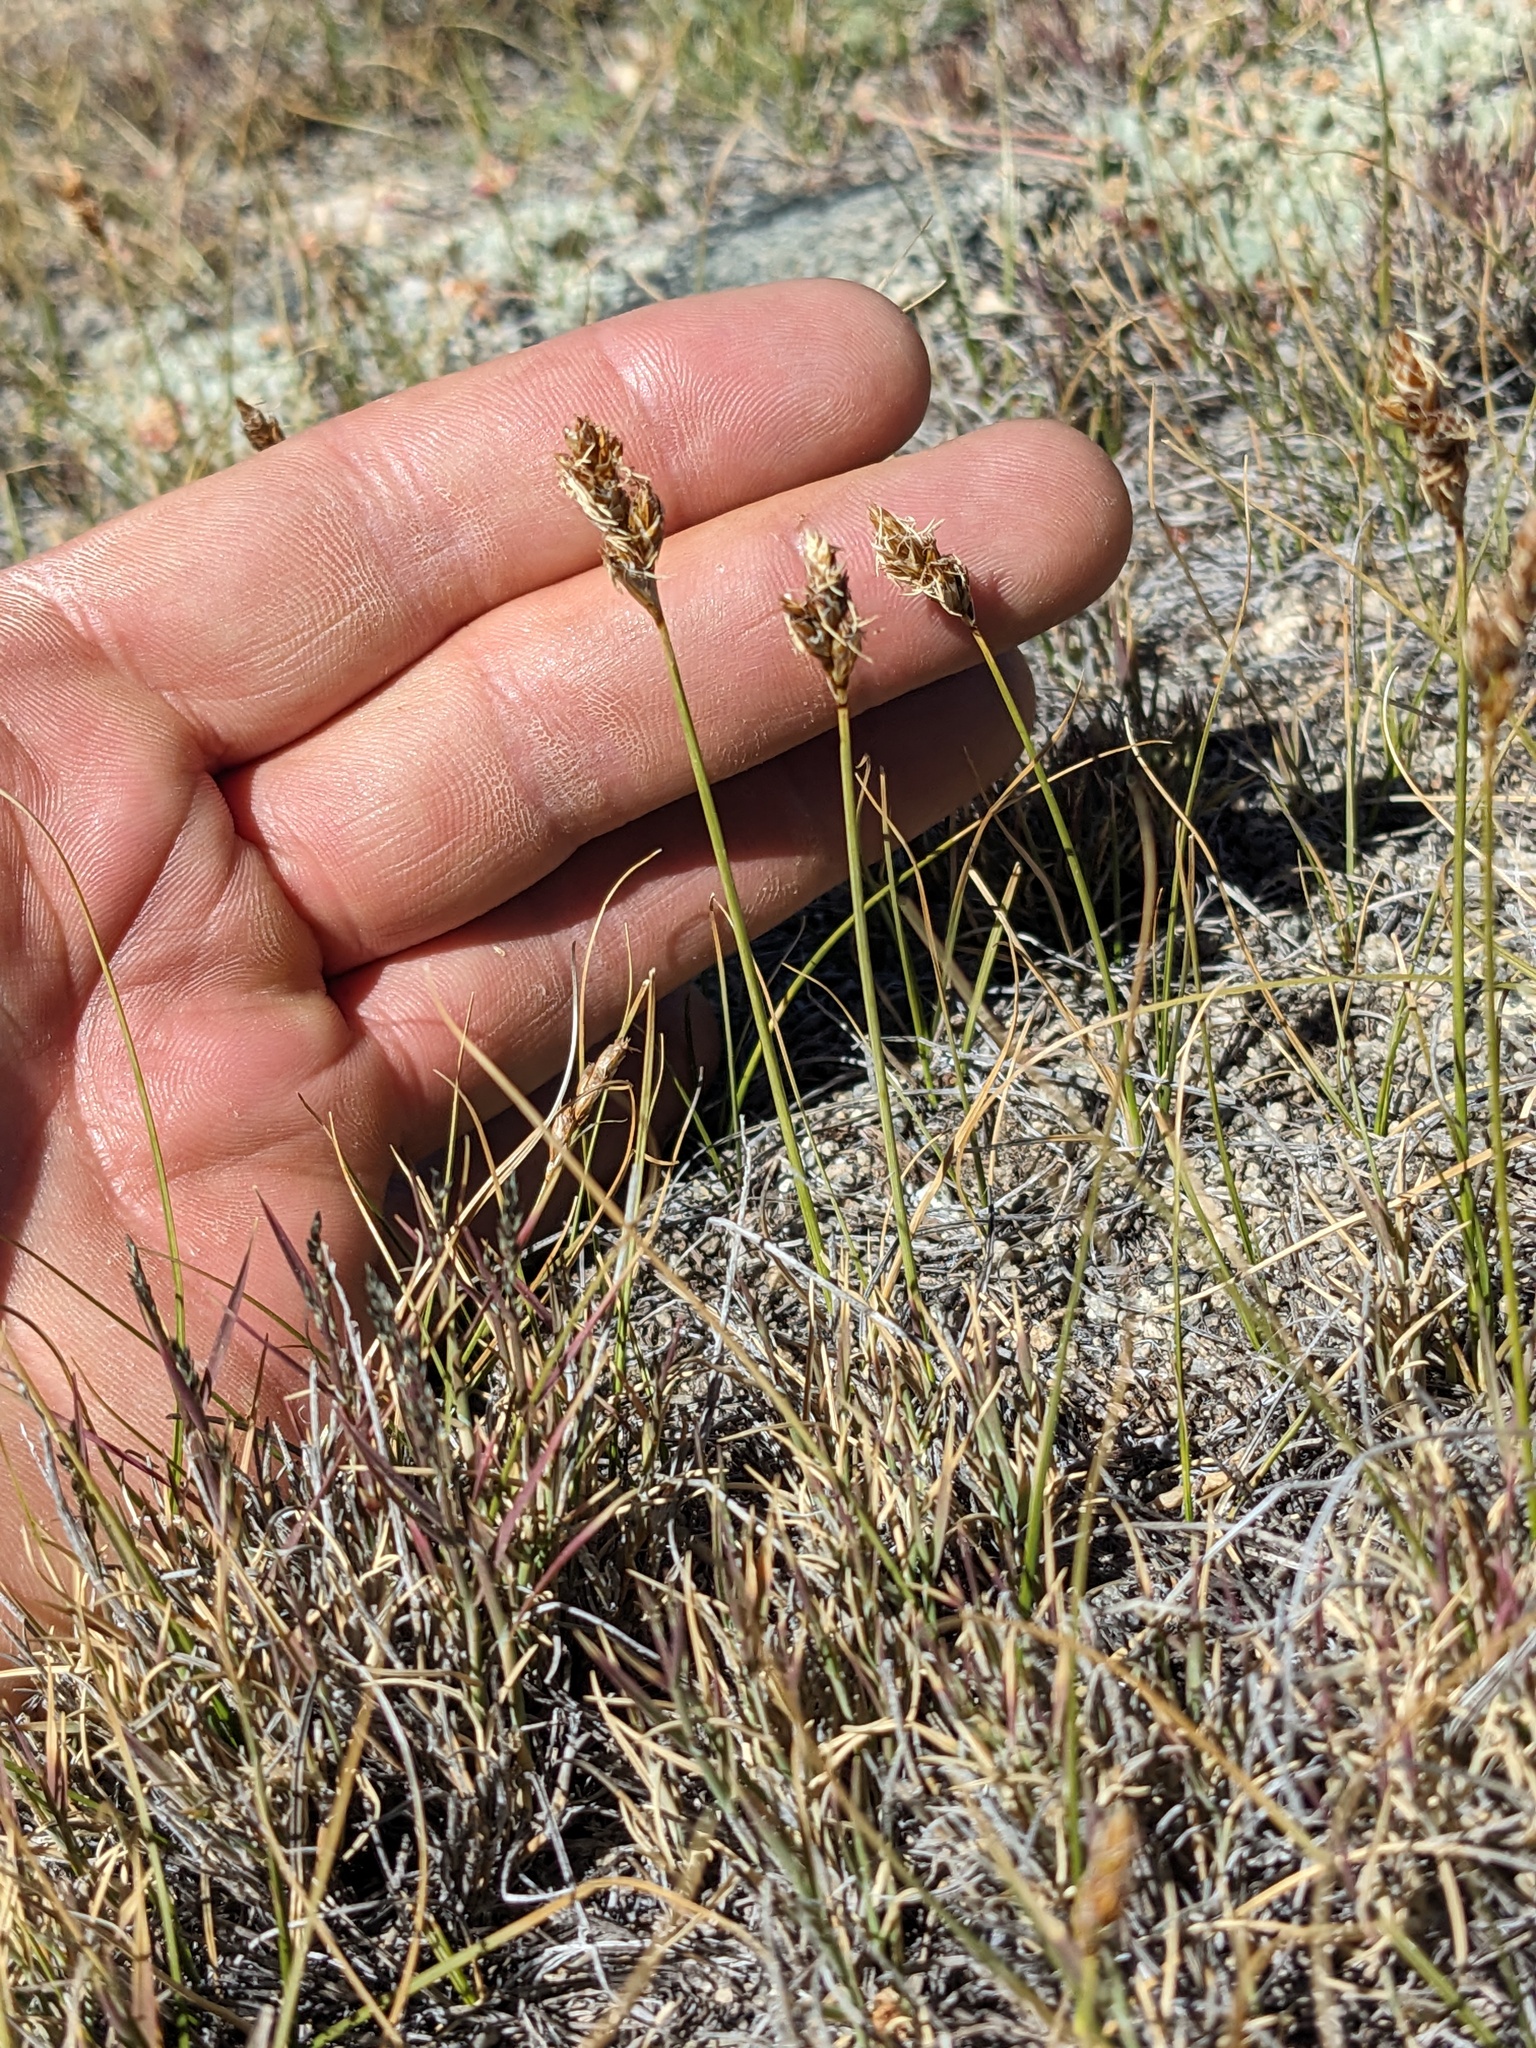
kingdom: Plantae
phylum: Tracheophyta
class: Liliopsida
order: Poales
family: Cyperaceae
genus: Carex
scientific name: Carex duriuscula
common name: Involute-leaved sedge
